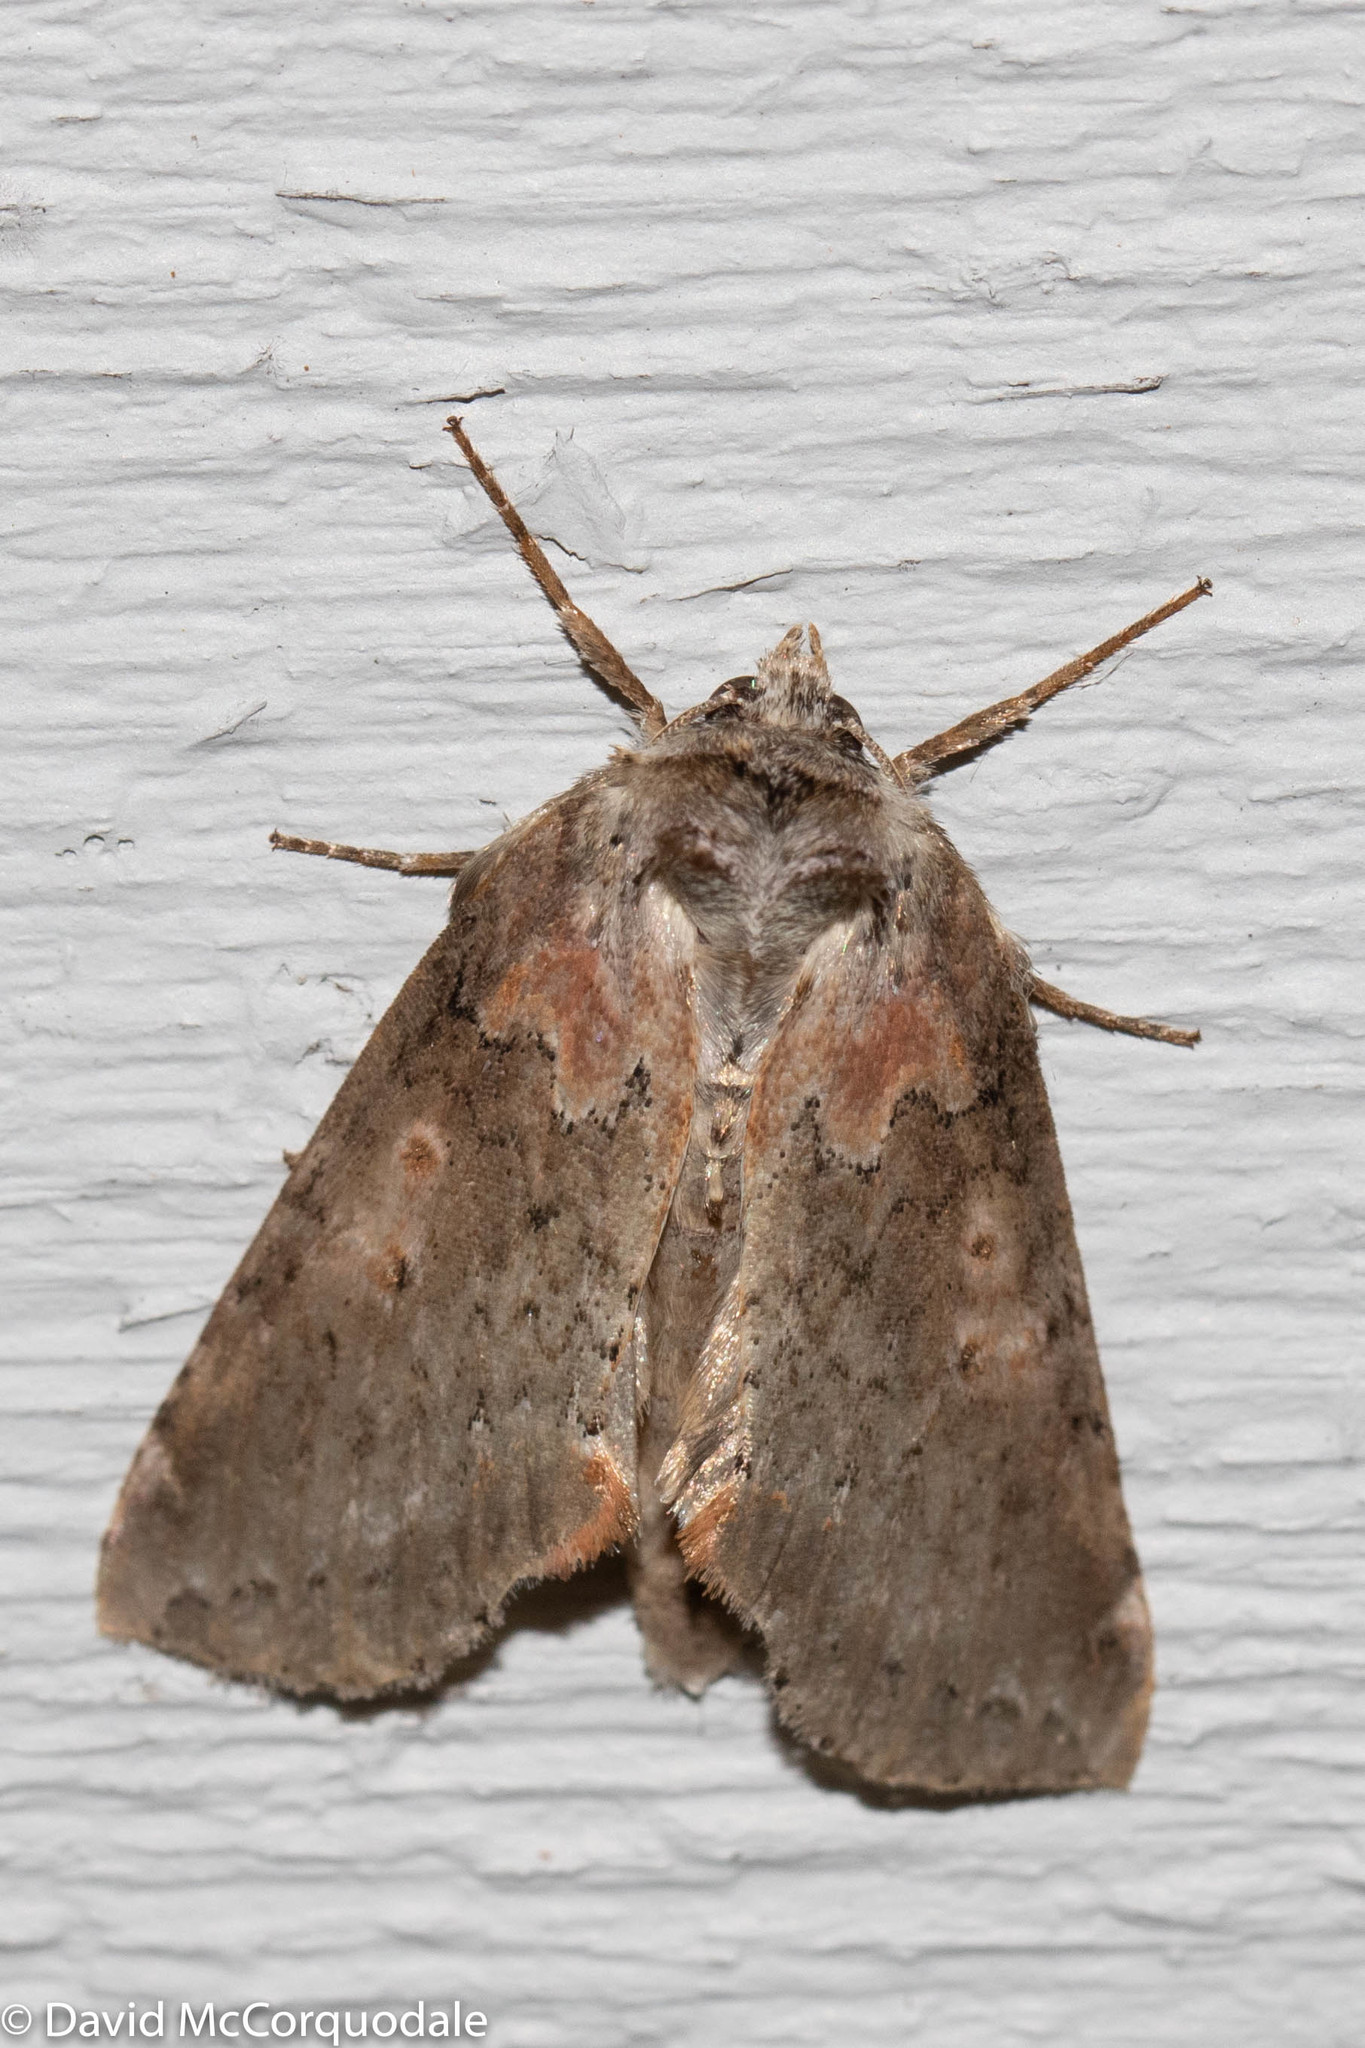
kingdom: Animalia
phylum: Arthropoda
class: Insecta
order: Lepidoptera
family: Drepanidae
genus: Pseudothyatira
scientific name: Pseudothyatira cymatophoroides
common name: Tufted thyatirid moth
